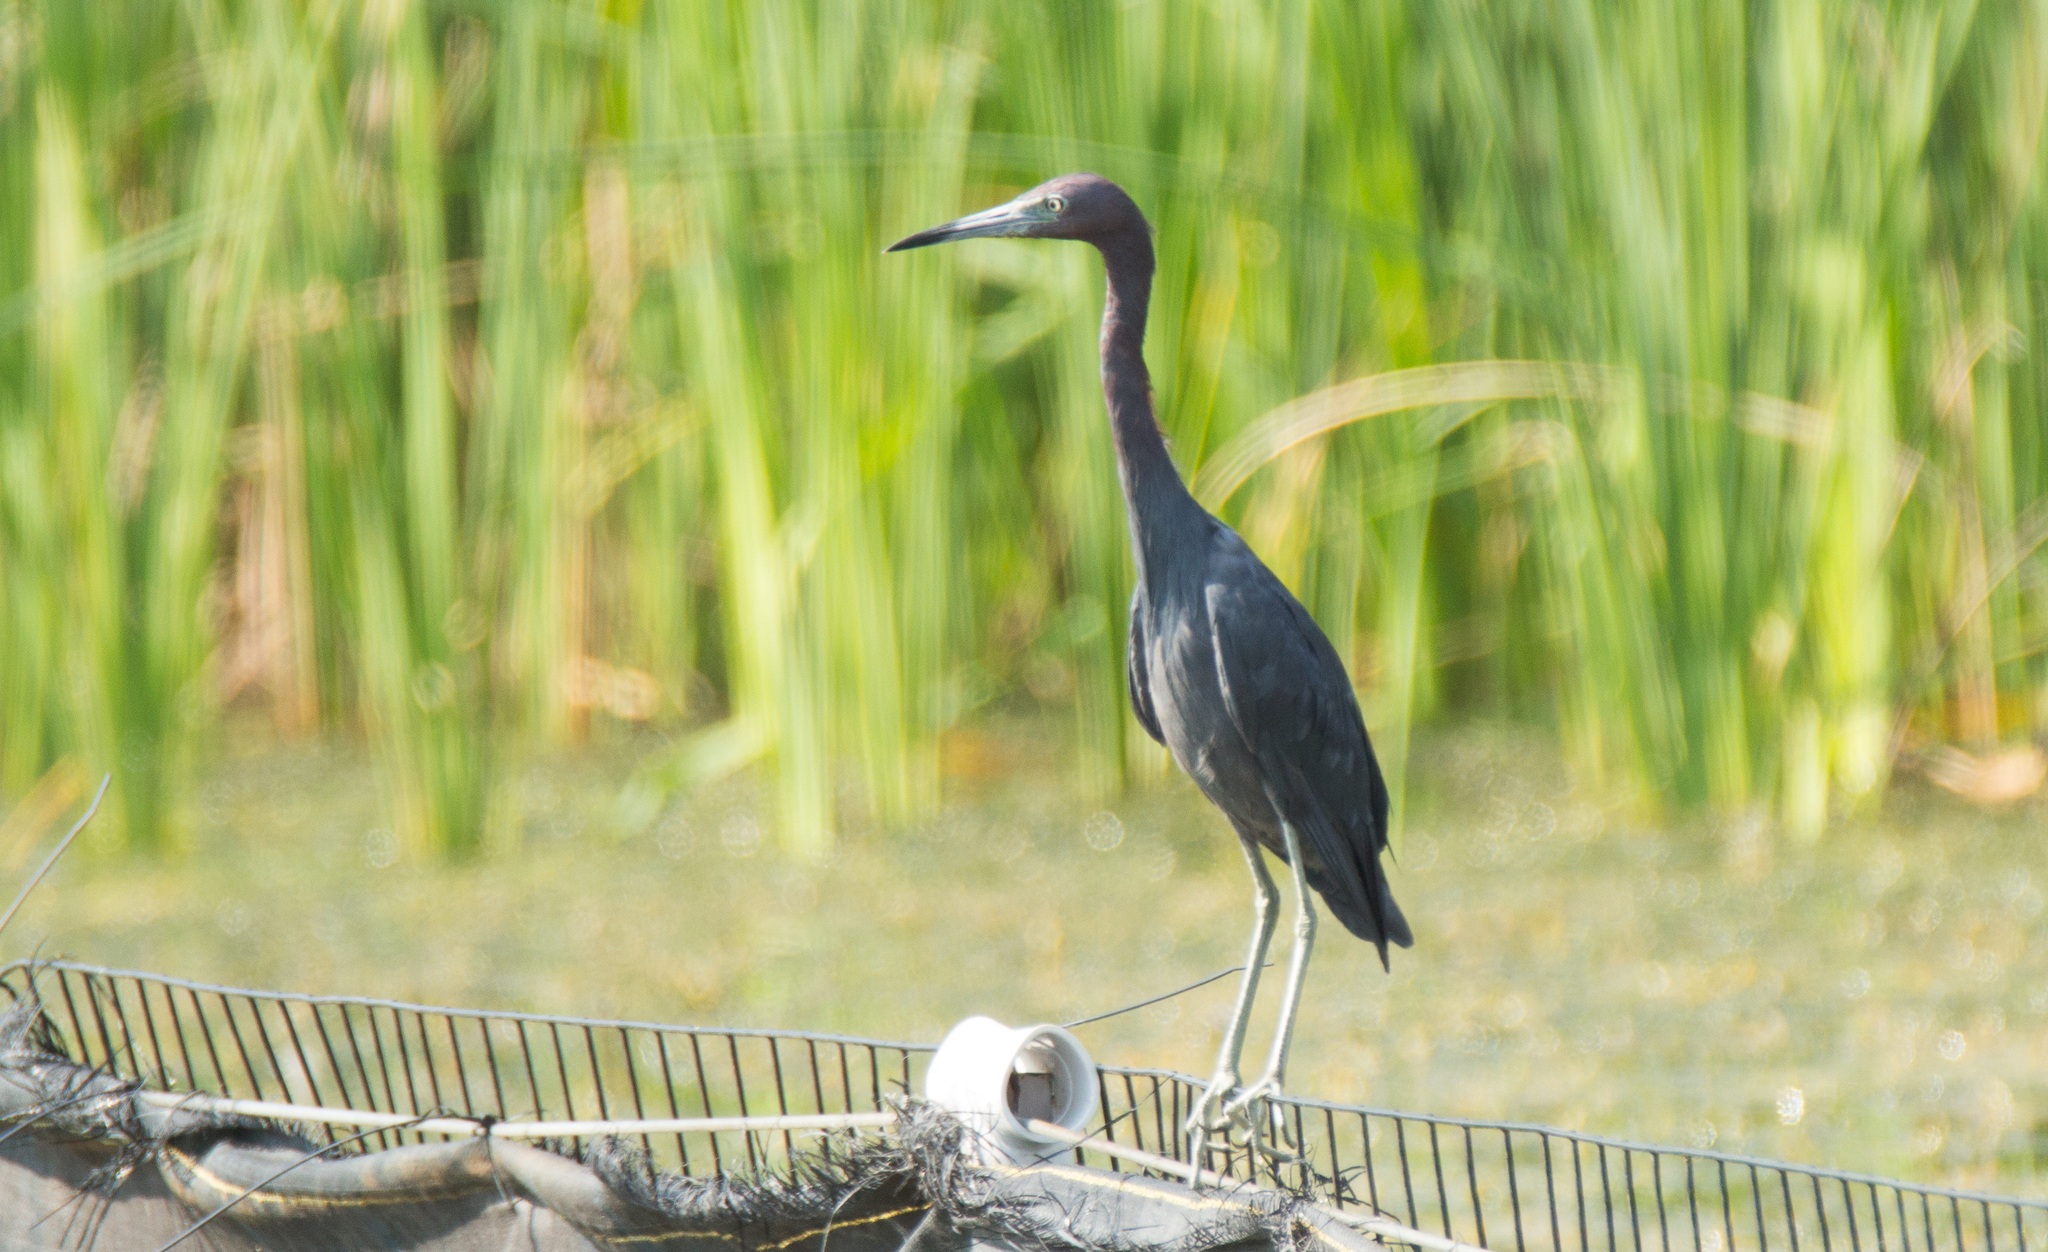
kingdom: Animalia
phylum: Chordata
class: Aves
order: Pelecaniformes
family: Ardeidae
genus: Egretta
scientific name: Egretta caerulea
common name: Little blue heron
